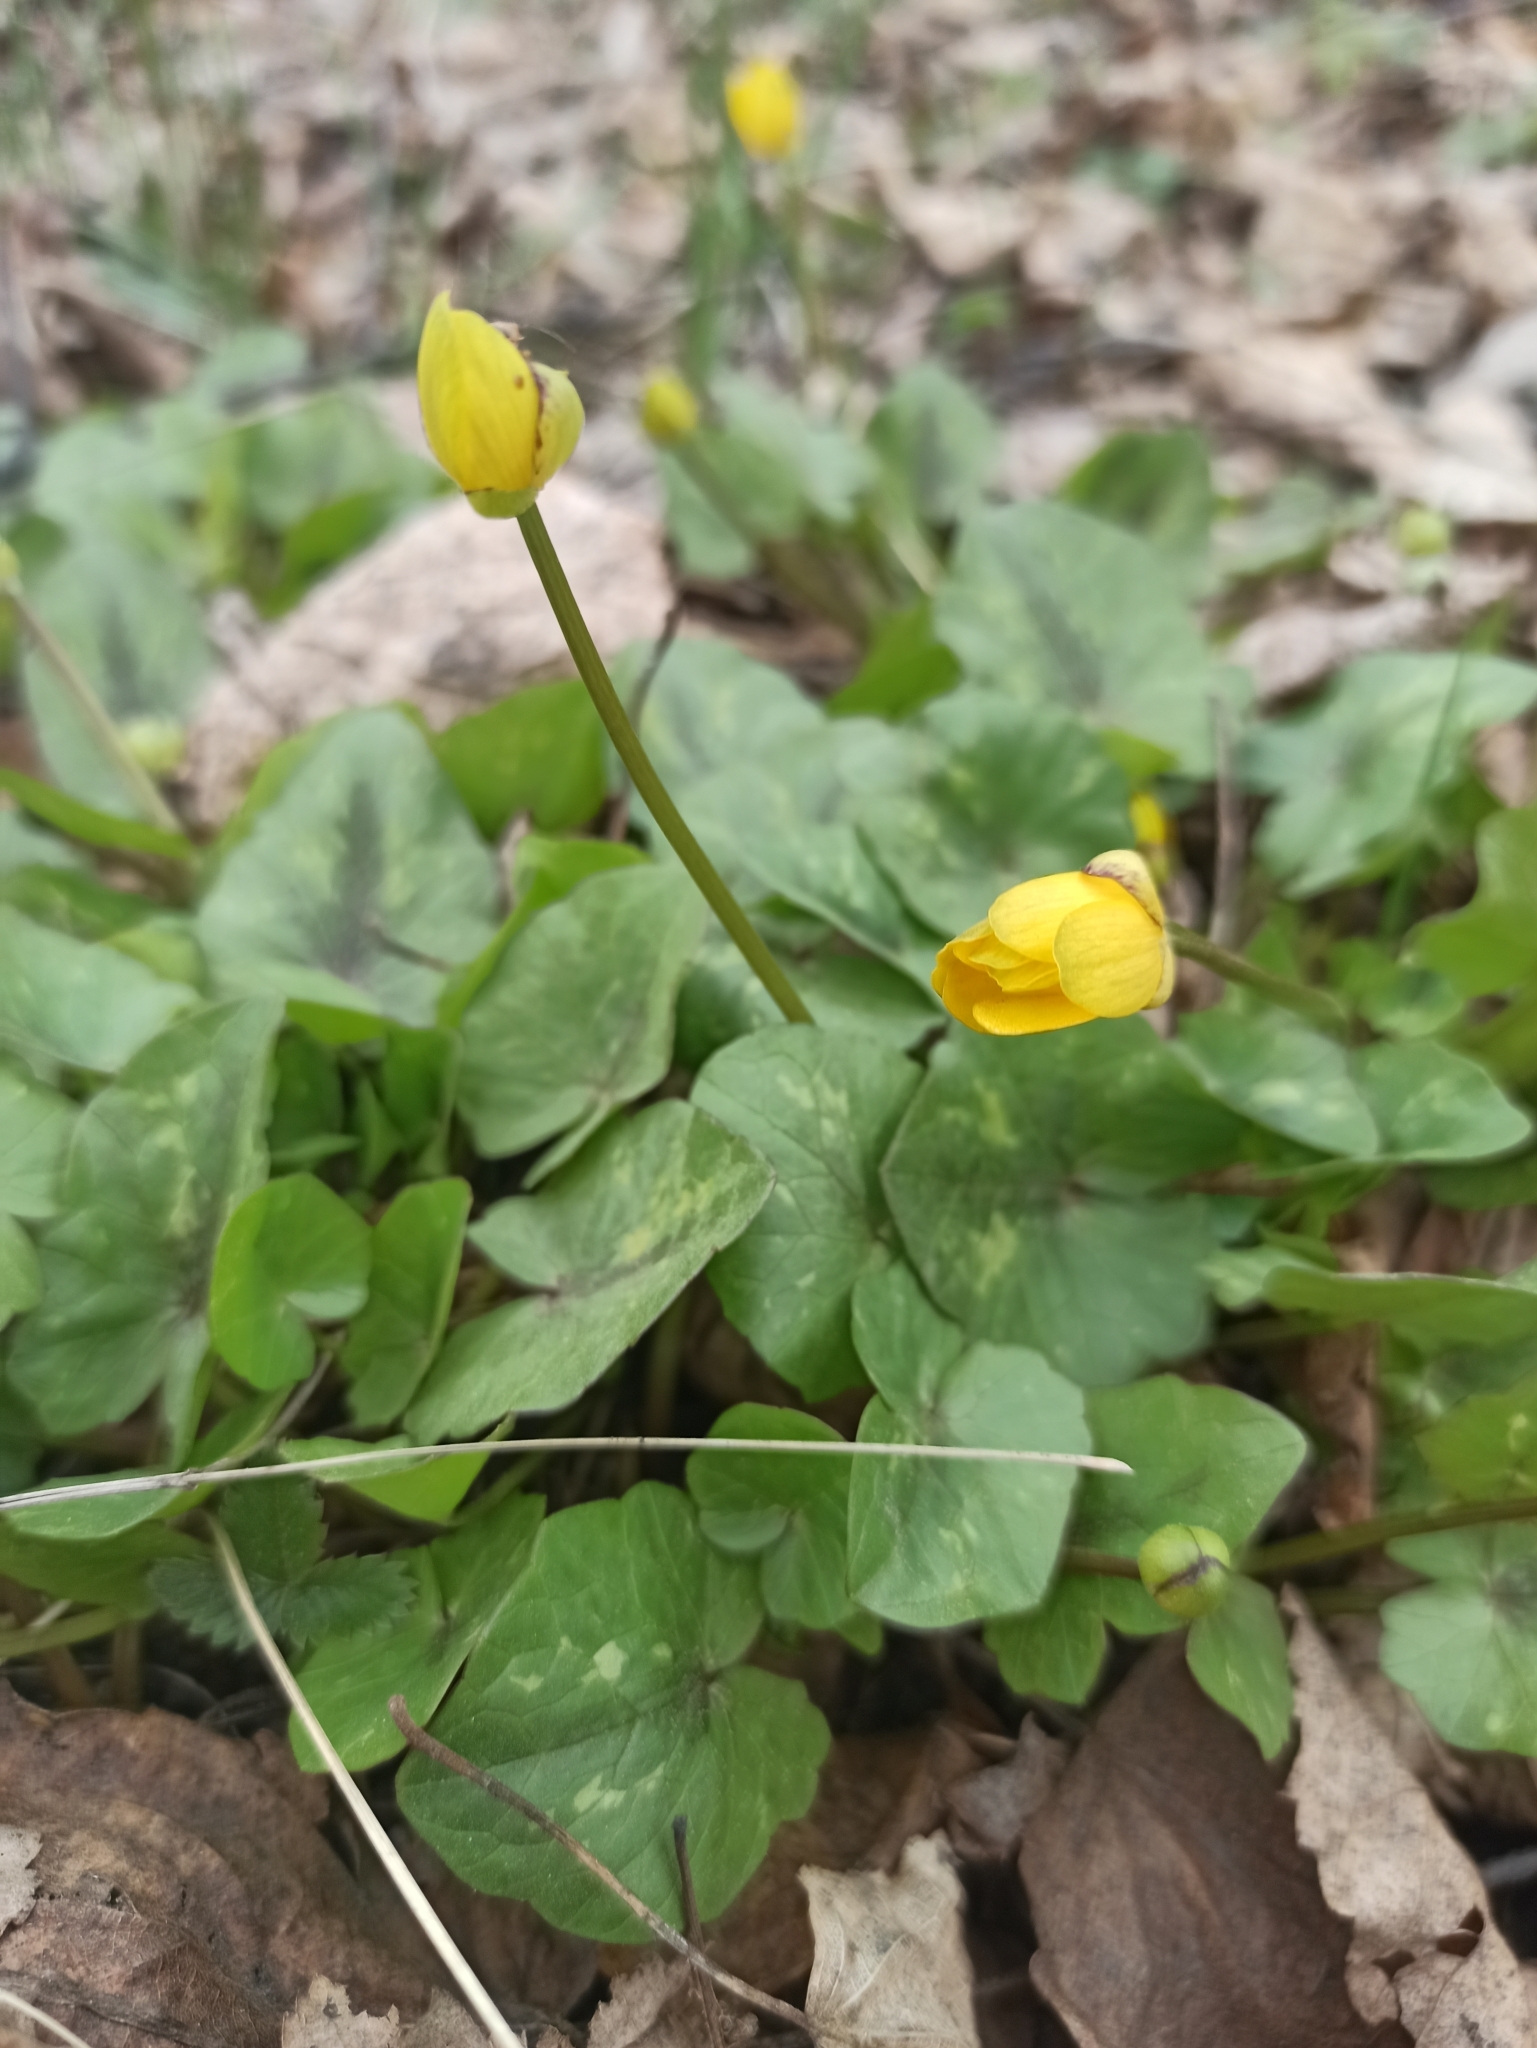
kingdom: Plantae
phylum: Tracheophyta
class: Magnoliopsida
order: Ranunculales
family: Ranunculaceae
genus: Ficaria
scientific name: Ficaria verna
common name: Lesser celandine
